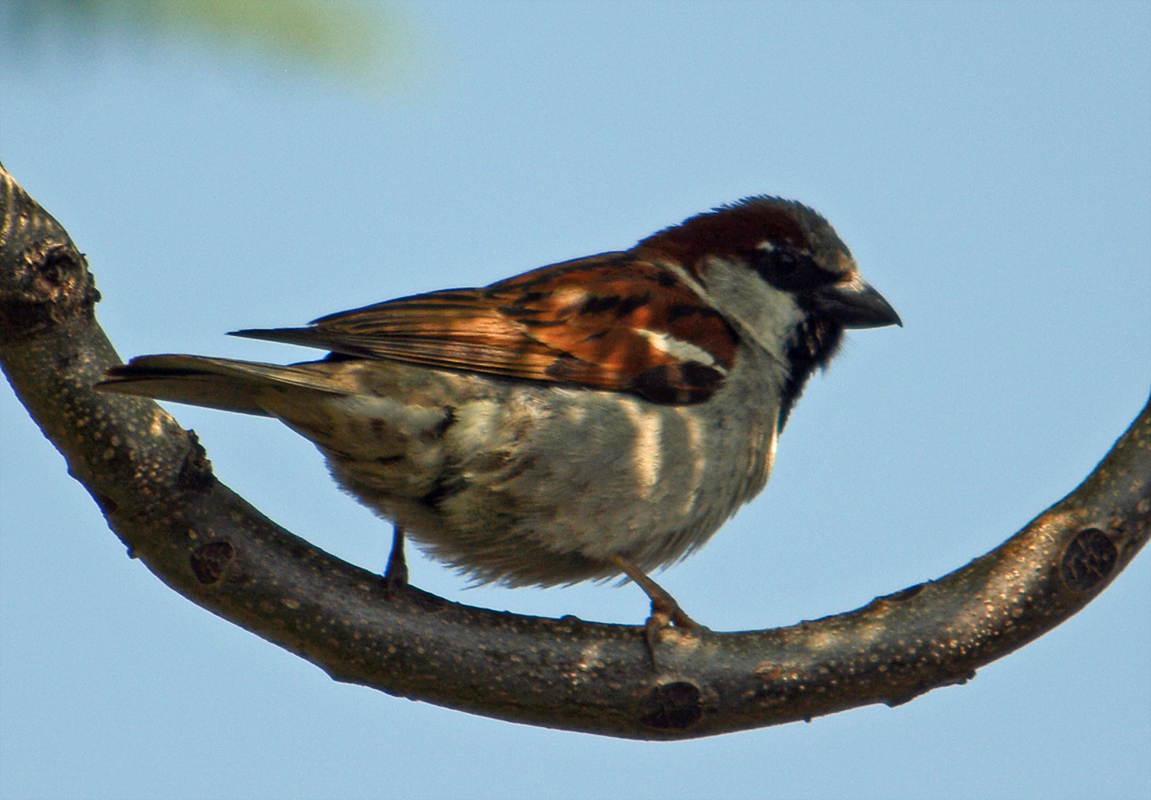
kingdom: Animalia
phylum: Chordata
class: Aves
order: Passeriformes
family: Passeridae
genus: Passer
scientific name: Passer domesticus
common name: House sparrow
